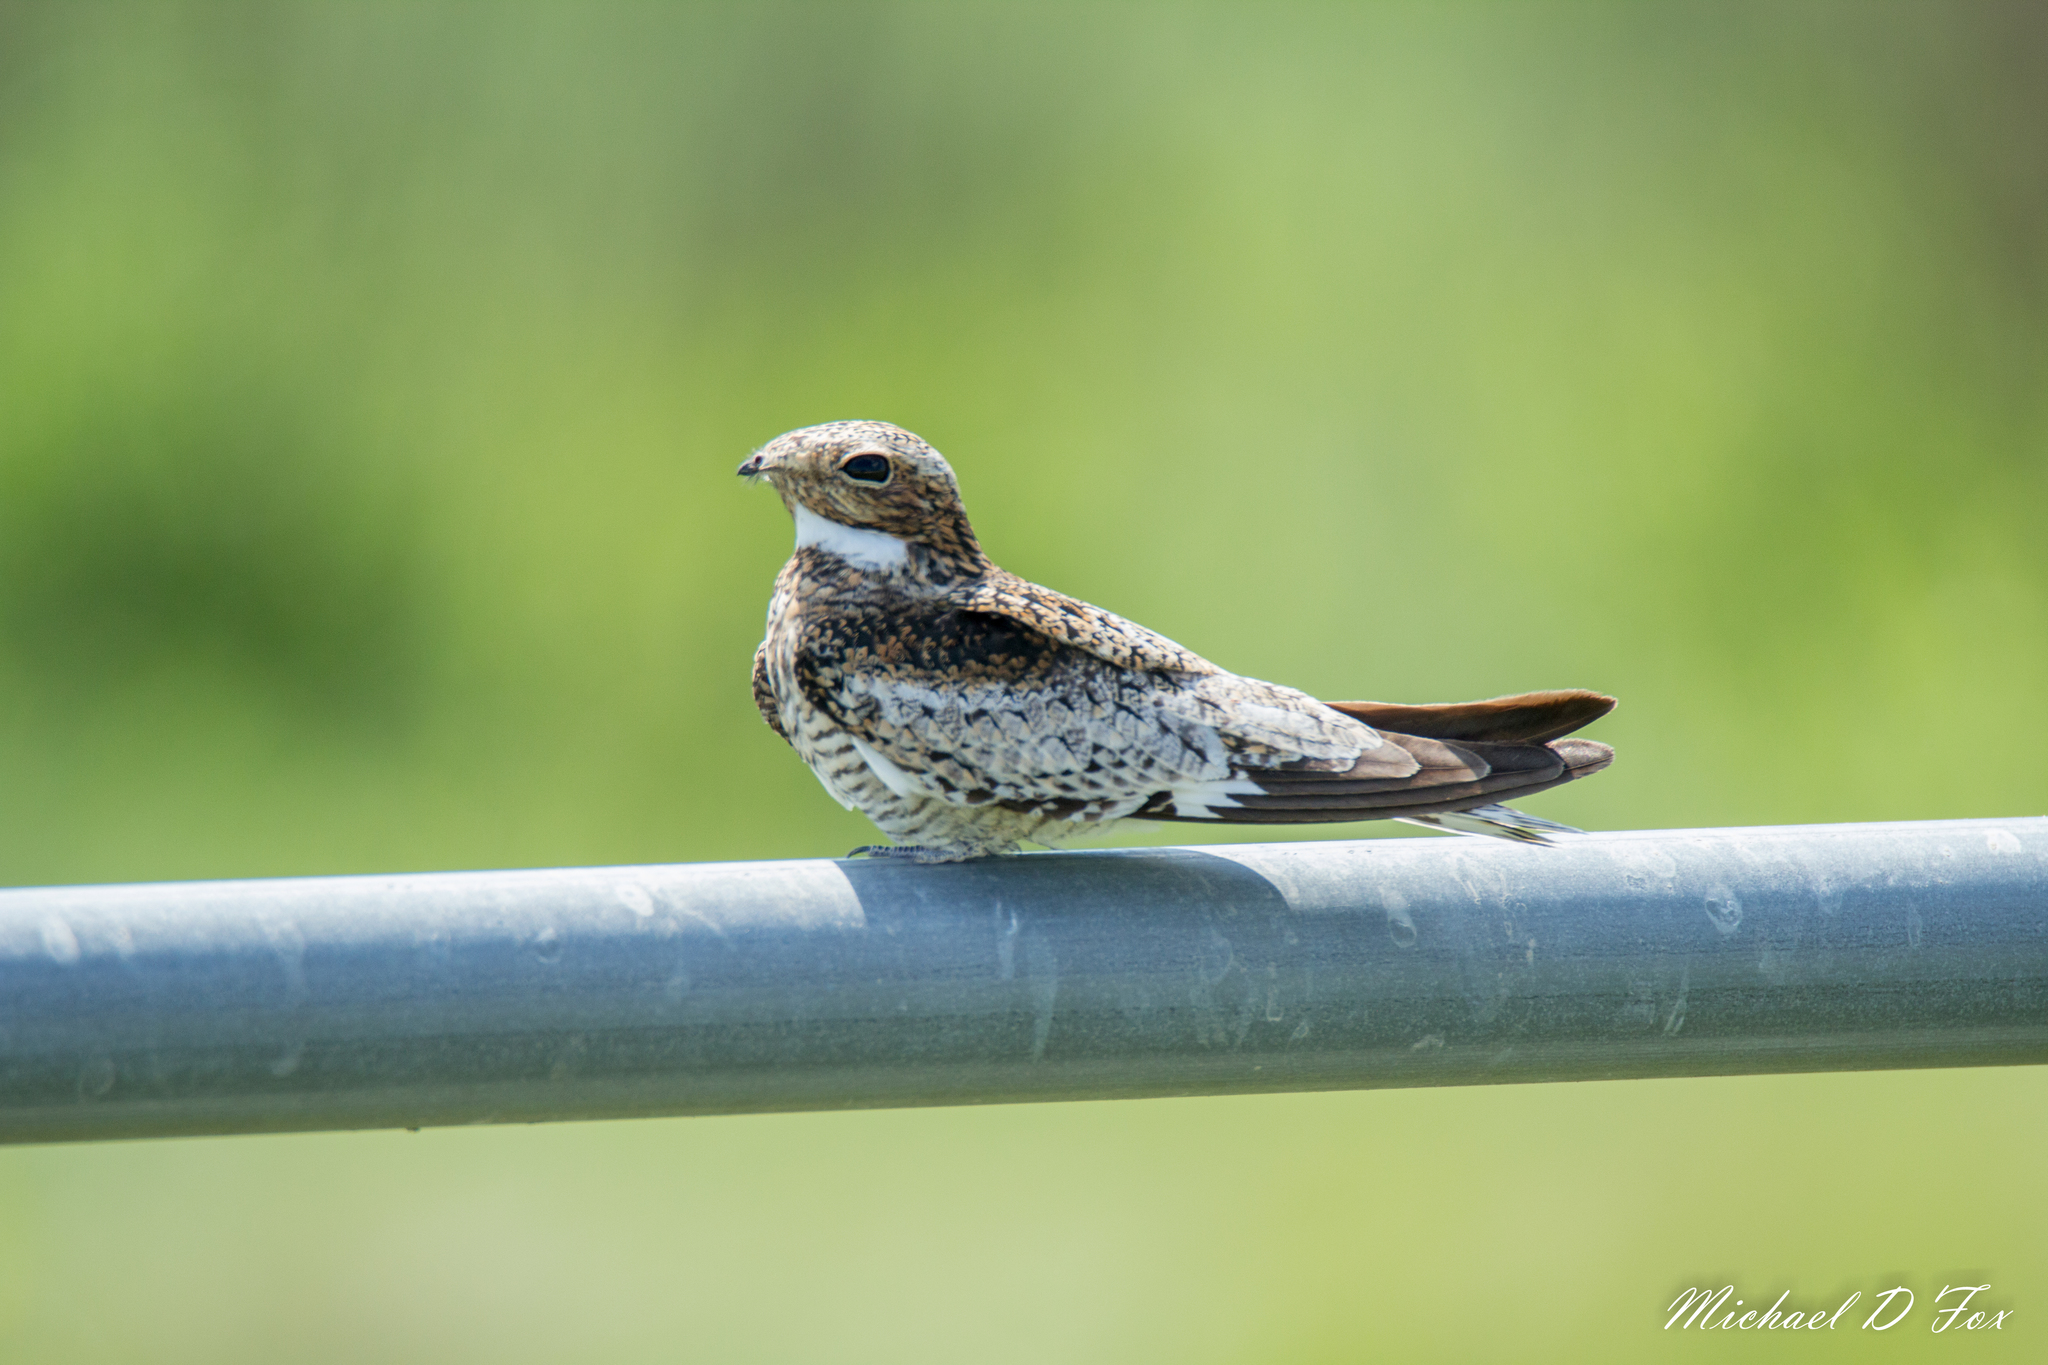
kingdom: Animalia
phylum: Chordata
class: Aves
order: Caprimulgiformes
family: Caprimulgidae
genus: Chordeiles
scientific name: Chordeiles minor
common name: Common nighthawk
